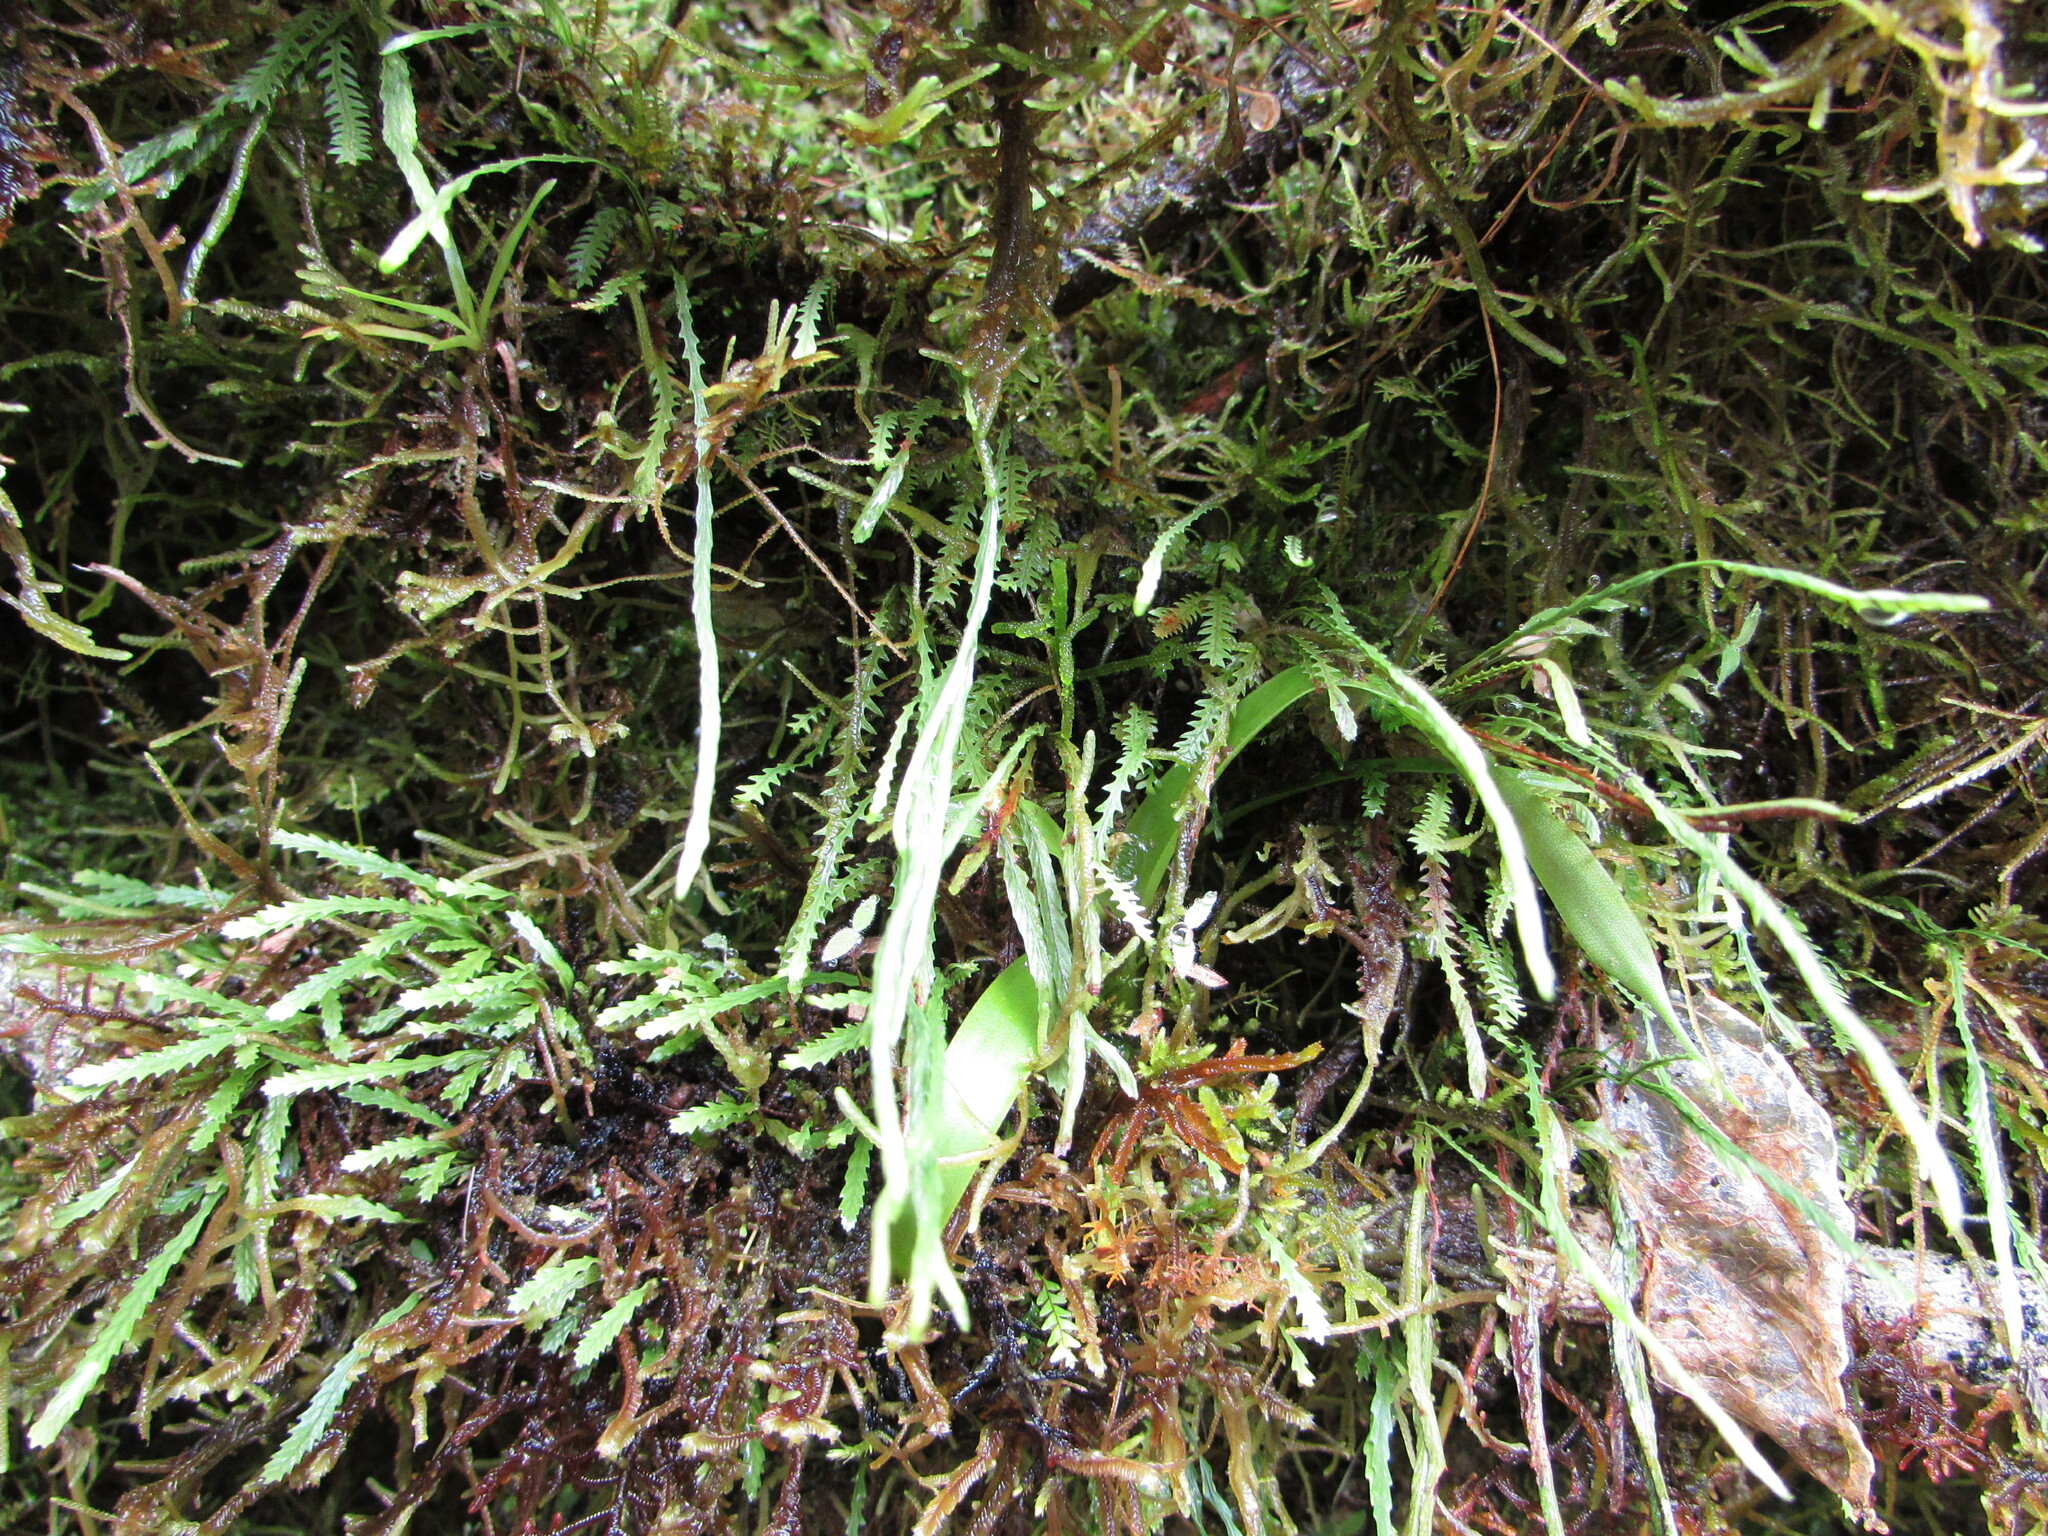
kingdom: Plantae
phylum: Tracheophyta
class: Polypodiopsida
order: Polypodiales
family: Polypodiaceae
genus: Cochlidium
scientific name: Cochlidium serrulatum
